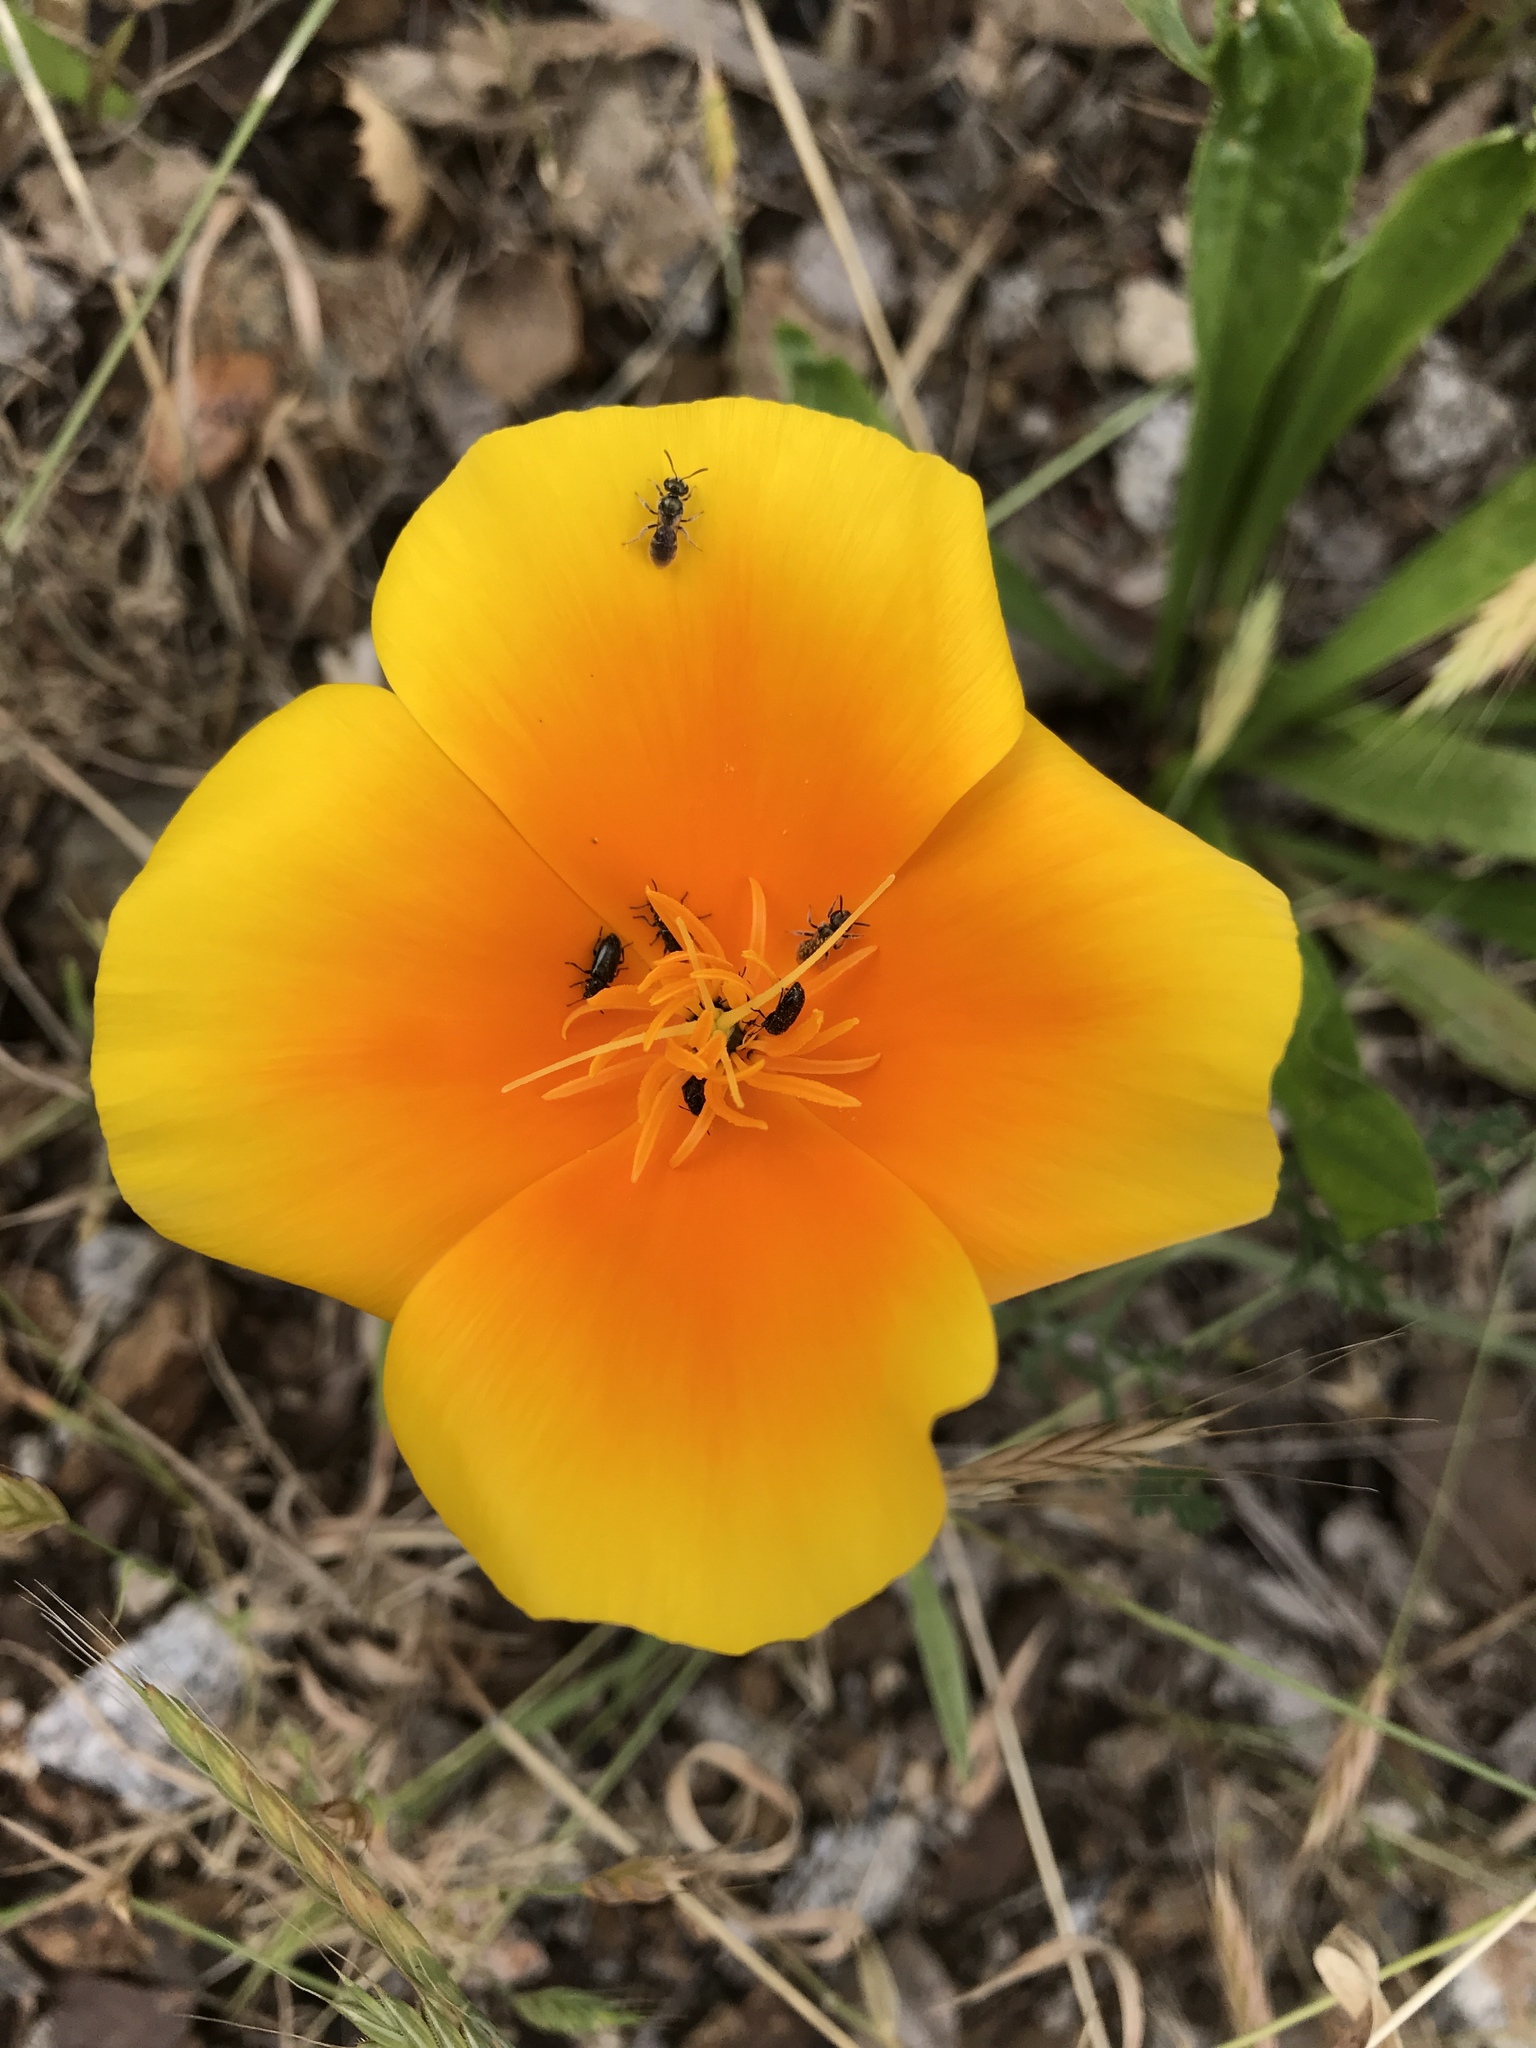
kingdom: Plantae
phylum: Tracheophyta
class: Magnoliopsida
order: Ranunculales
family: Papaveraceae
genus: Eschscholzia
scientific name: Eschscholzia californica
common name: California poppy
